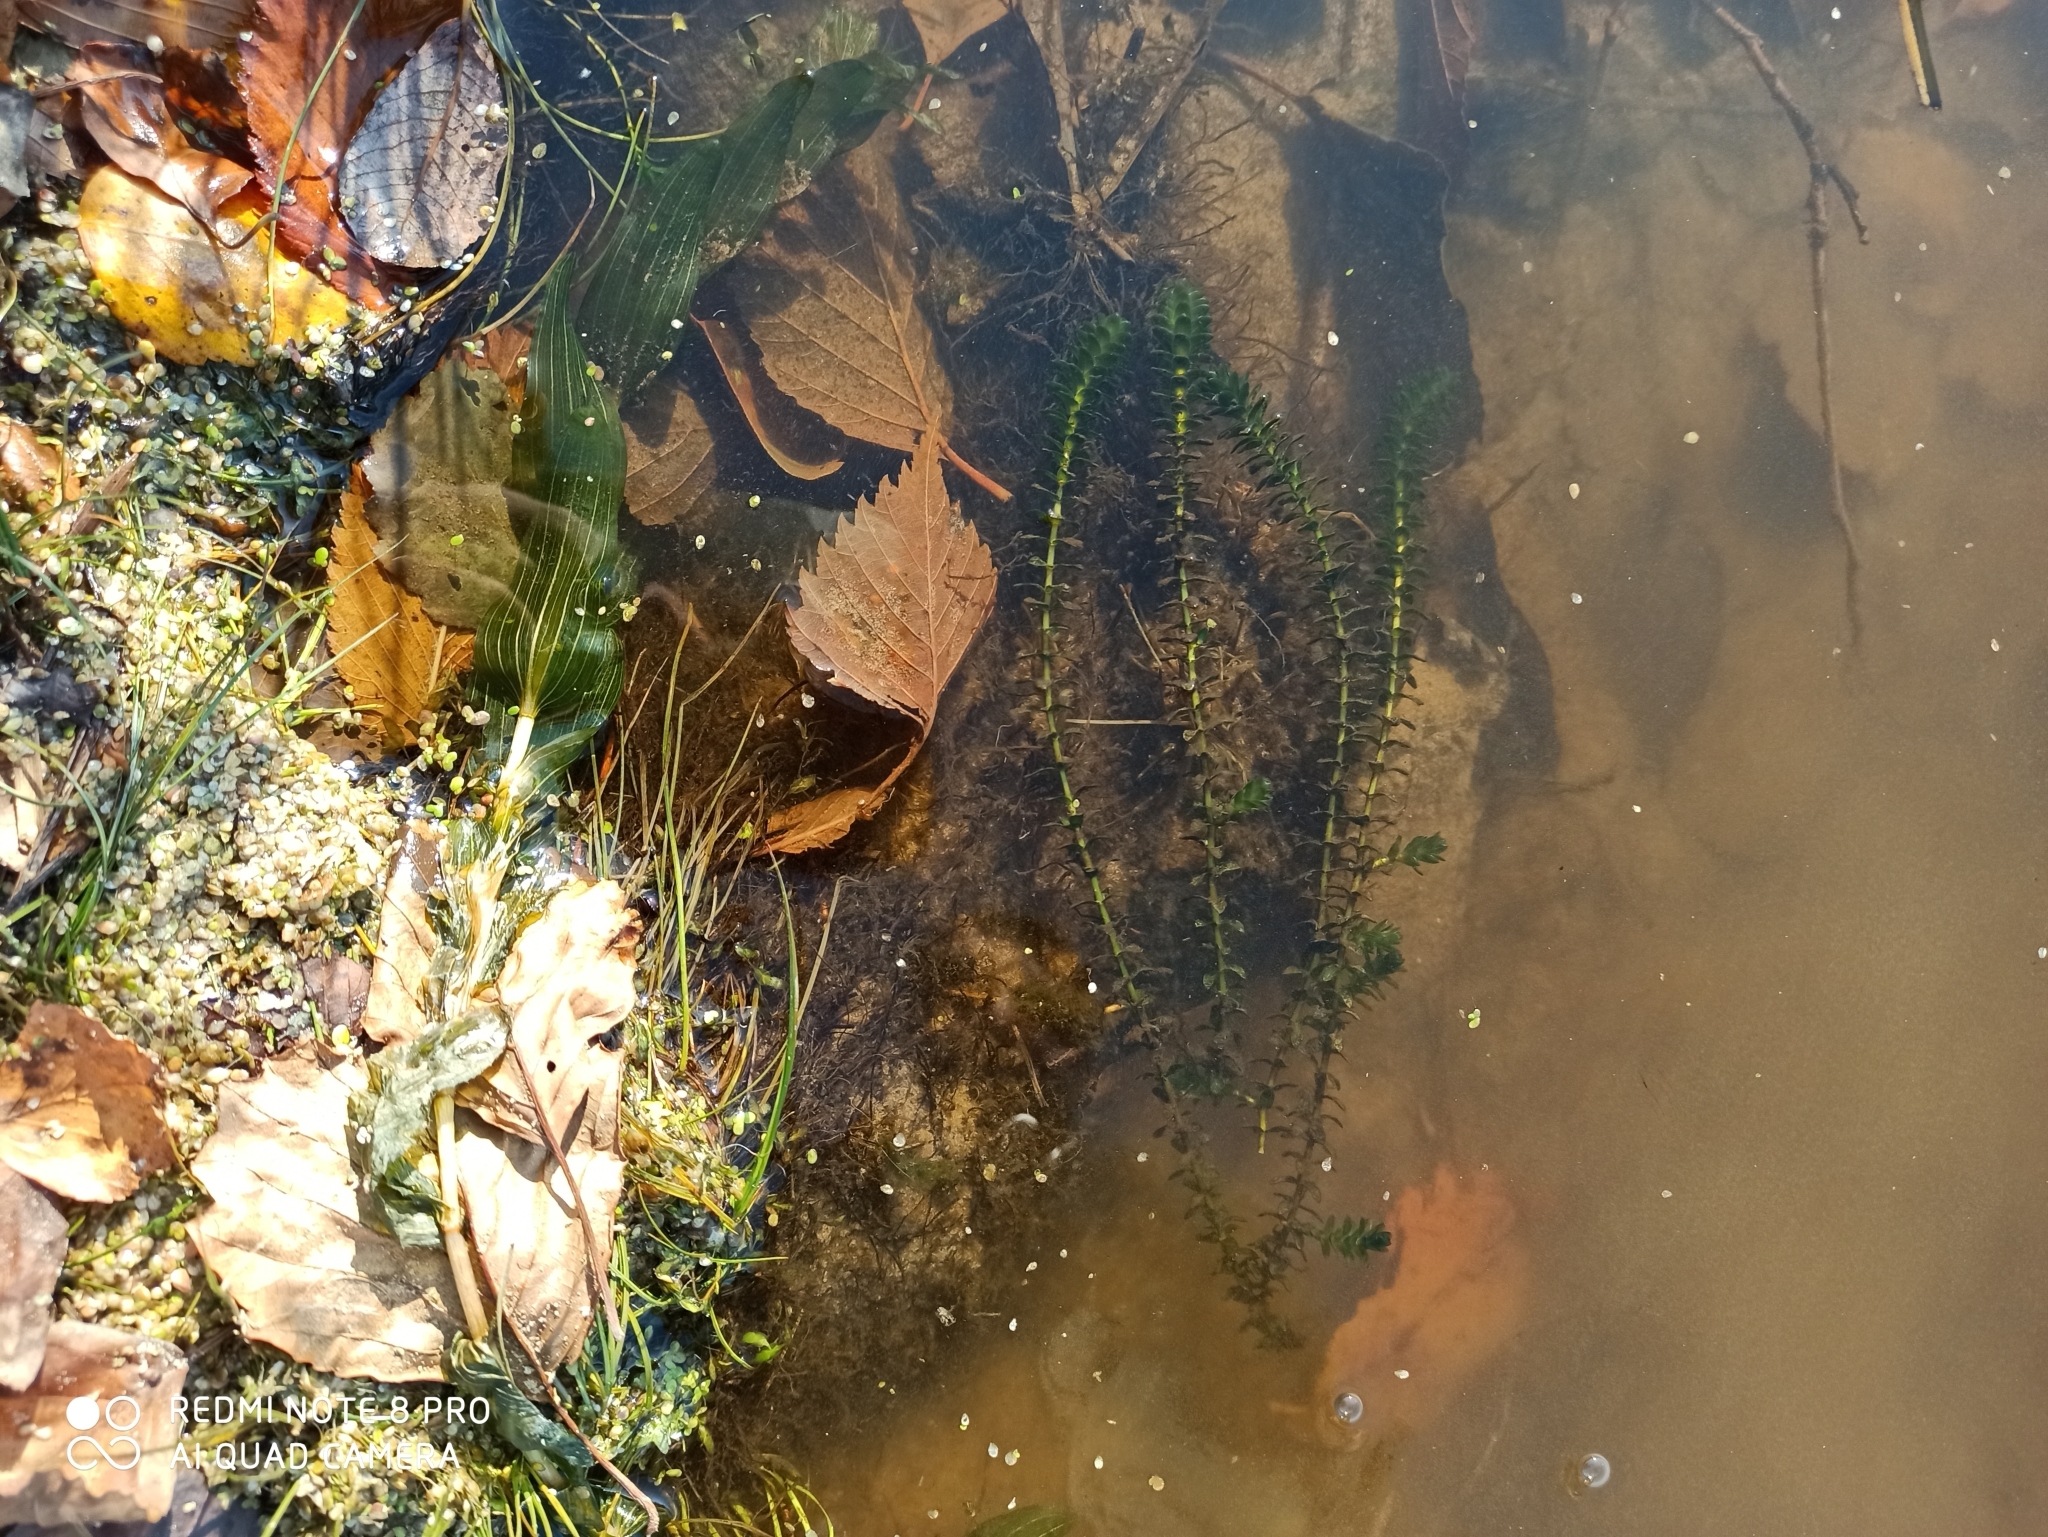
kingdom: Plantae
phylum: Tracheophyta
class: Liliopsida
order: Alismatales
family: Hydrocharitaceae
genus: Elodea
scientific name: Elodea canadensis
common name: Canadian waterweed
